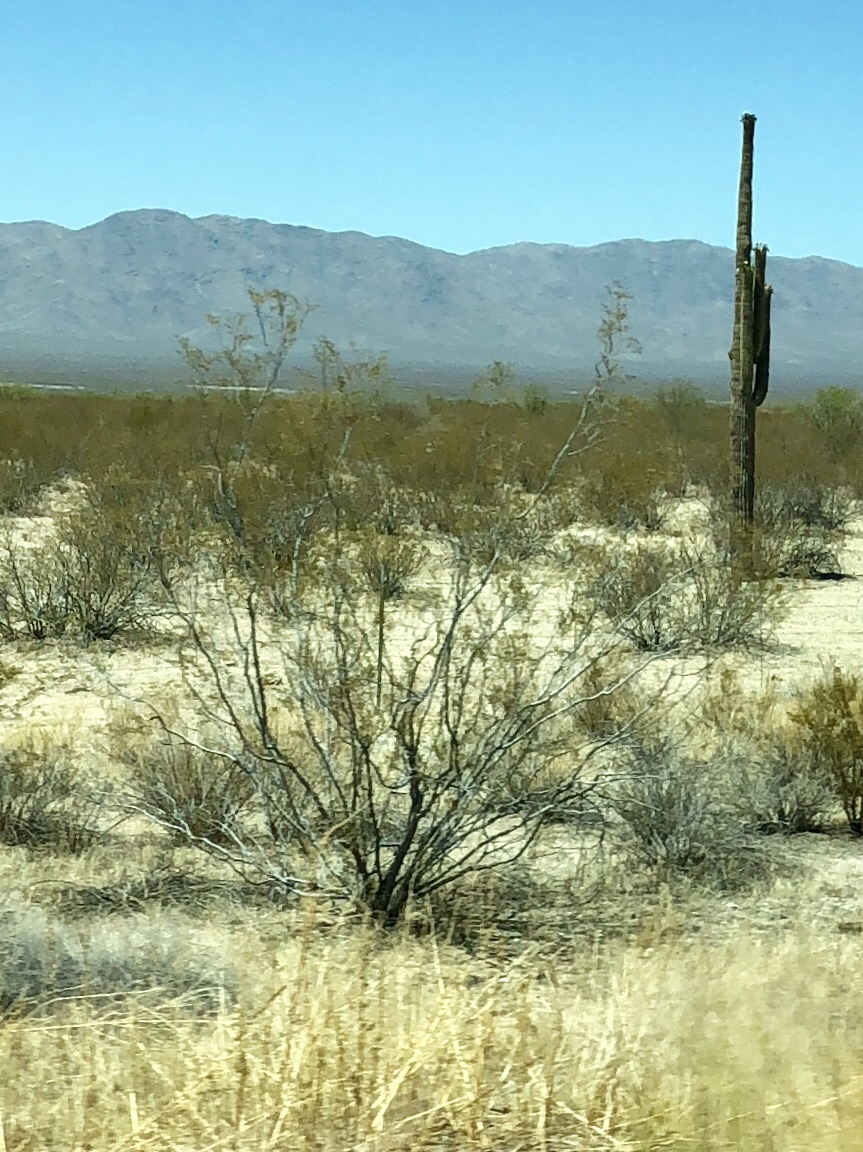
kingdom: Plantae
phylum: Tracheophyta
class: Magnoliopsida
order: Zygophyllales
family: Zygophyllaceae
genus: Larrea
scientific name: Larrea tridentata
